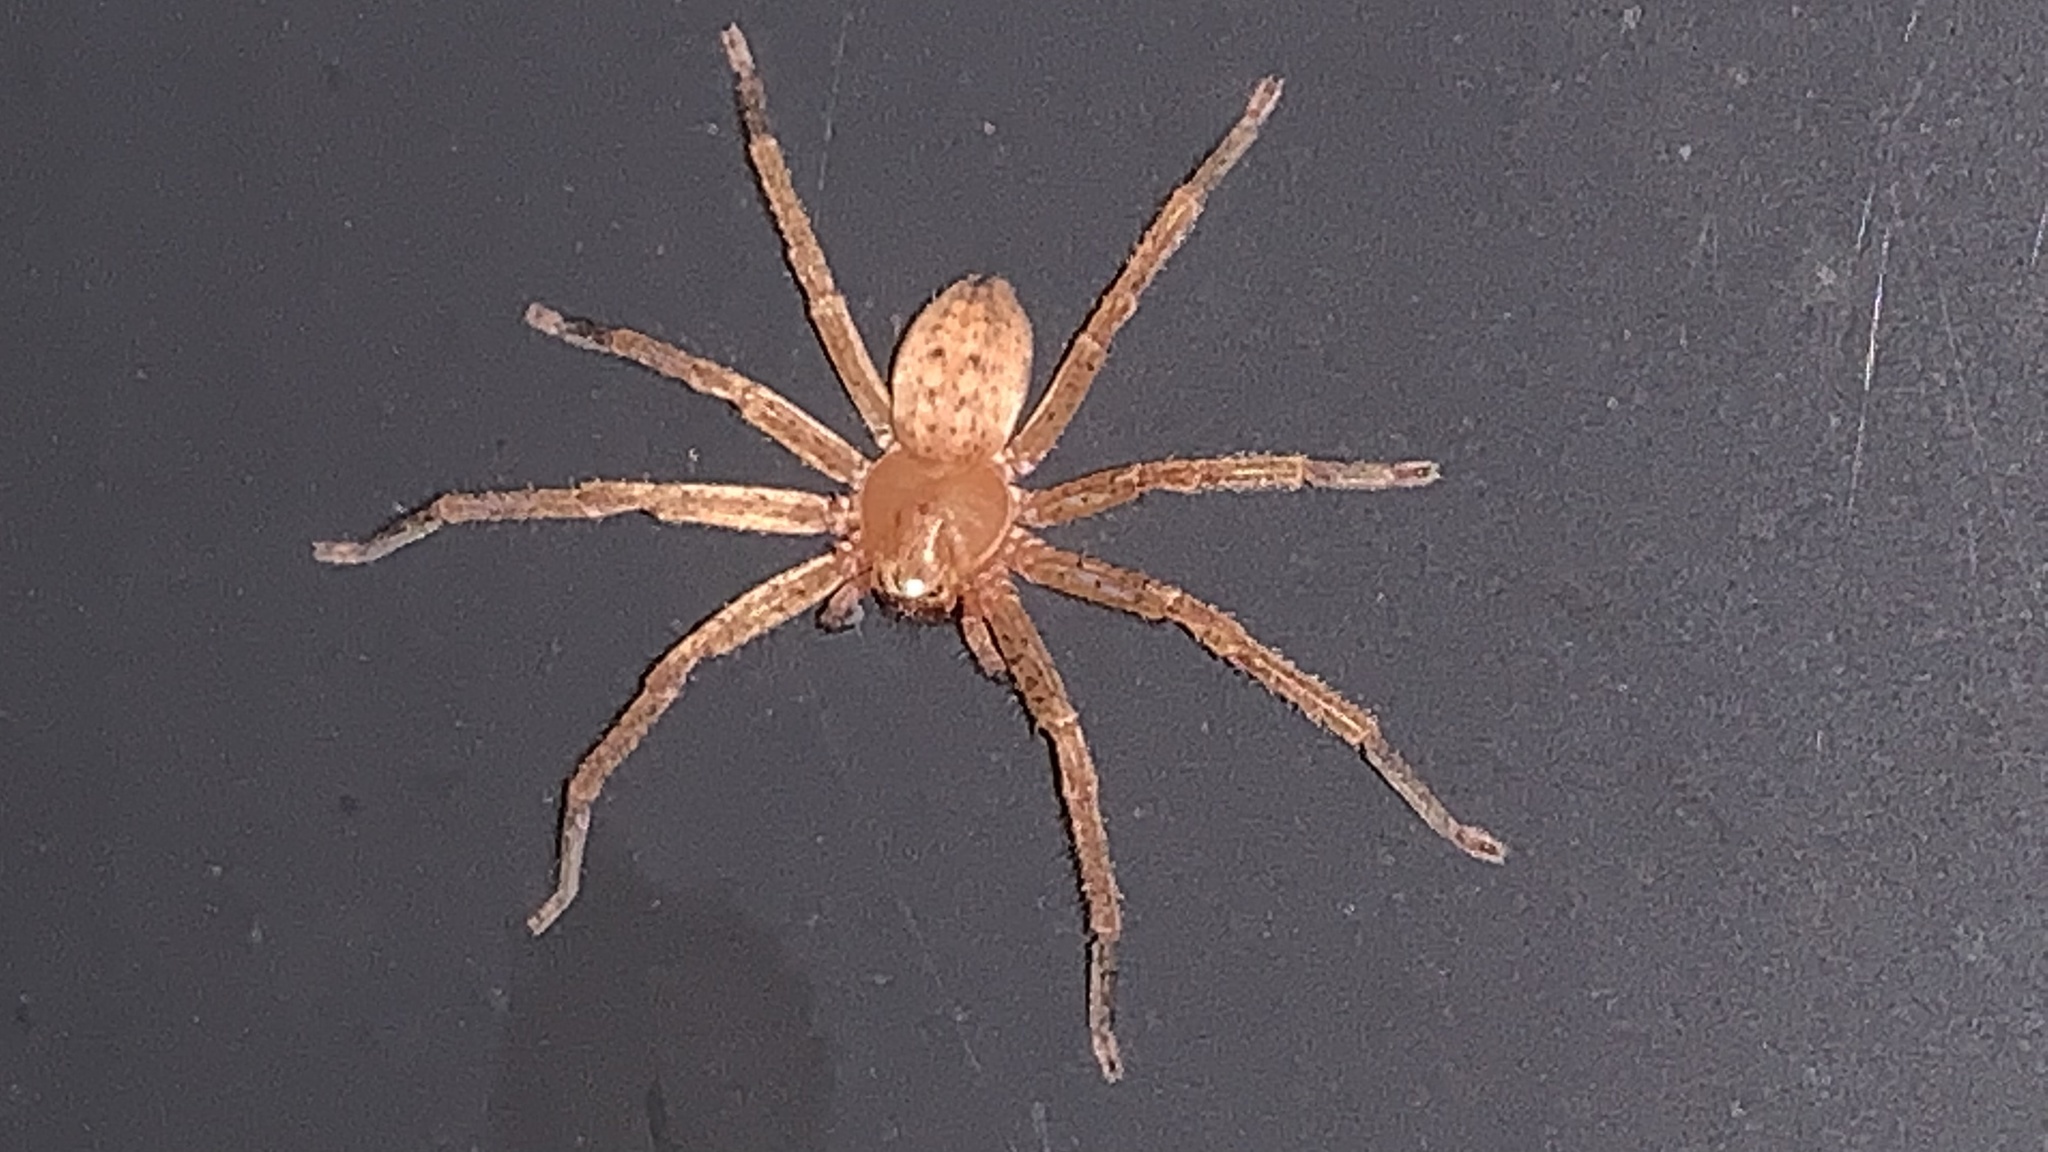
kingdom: Animalia
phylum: Arthropoda
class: Arachnida
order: Araneae
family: Sparassidae
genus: Olios
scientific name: Olios argelasius
